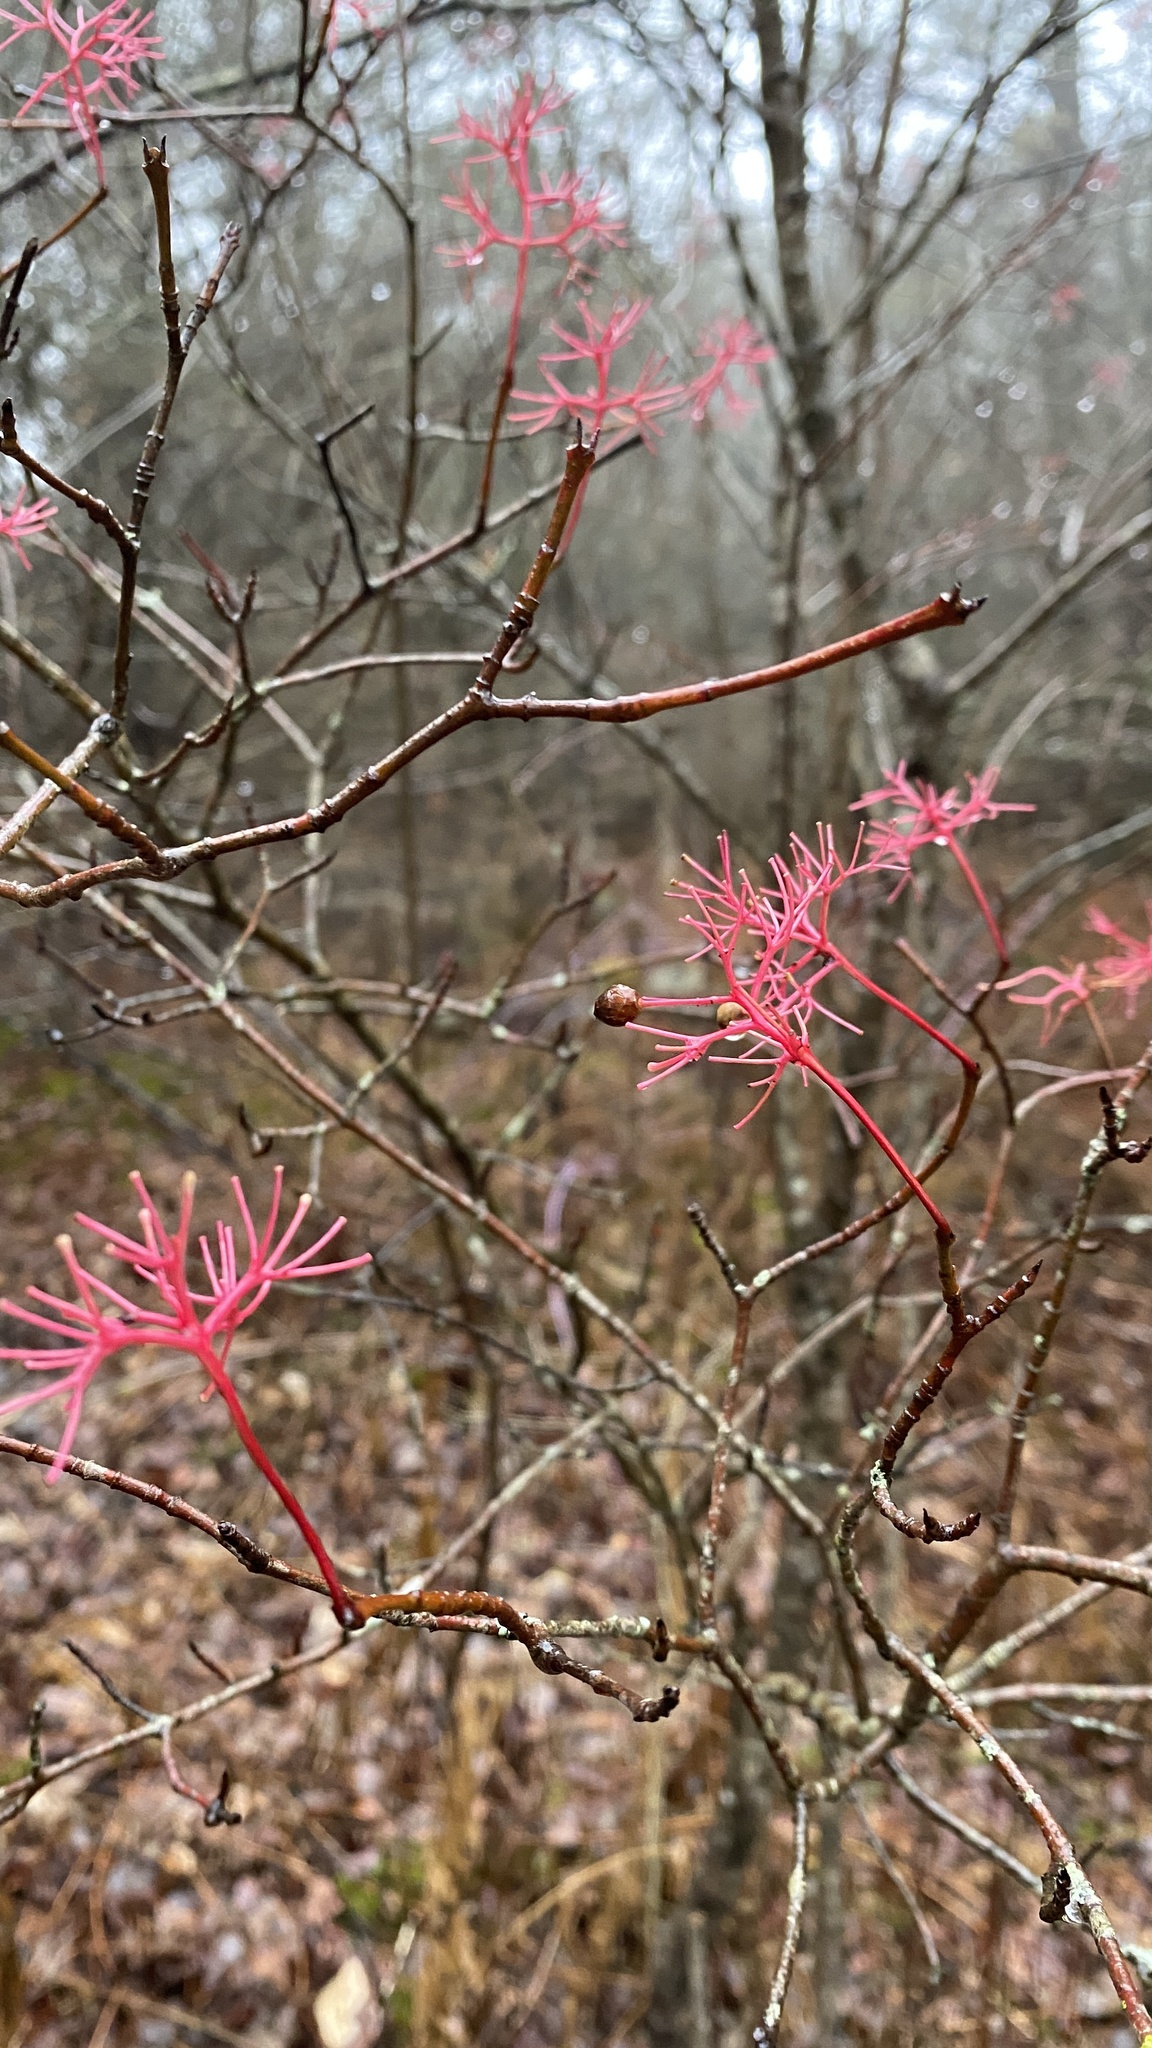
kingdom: Plantae
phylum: Tracheophyta
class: Magnoliopsida
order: Cornales
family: Cornaceae
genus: Cornus
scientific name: Cornus racemosa
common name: Panicled dogwood
